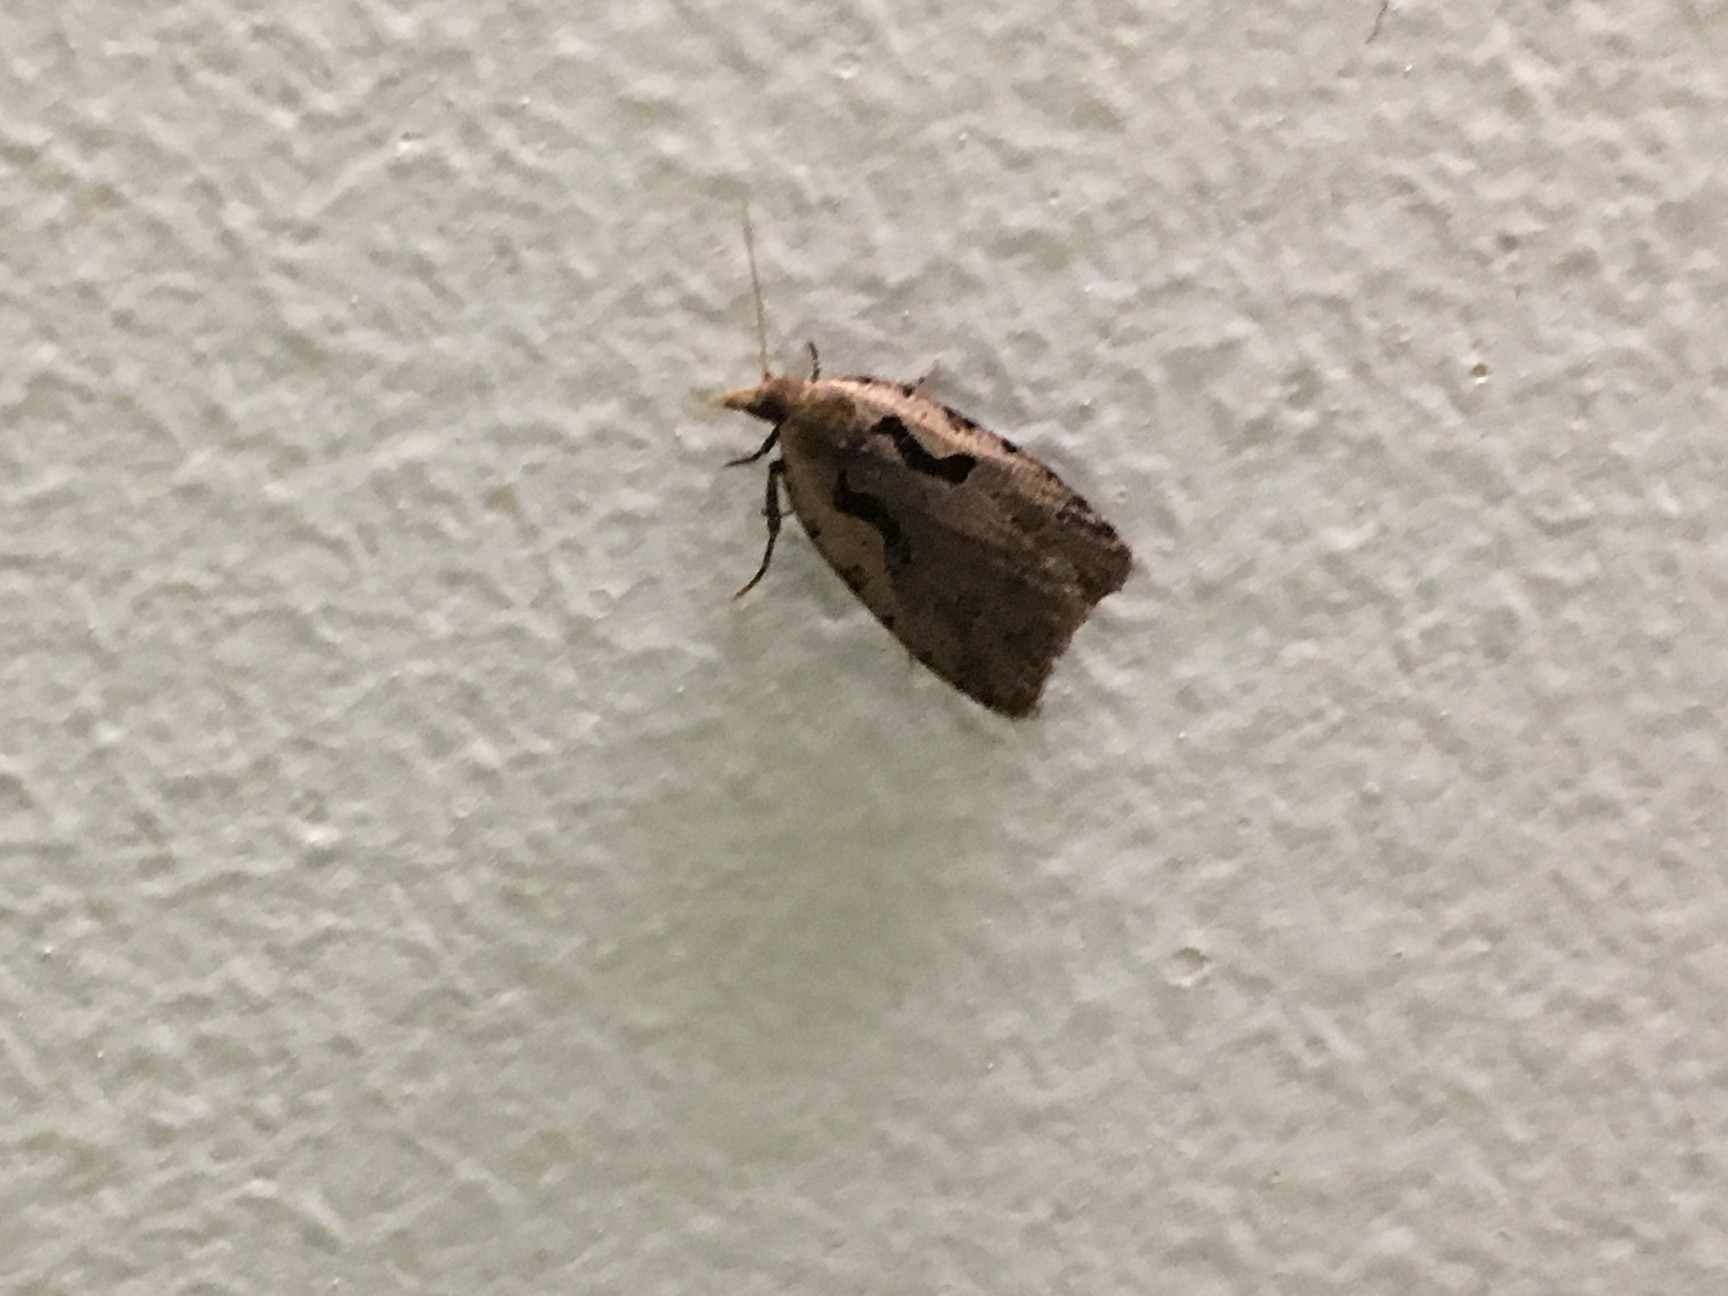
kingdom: Animalia
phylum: Arthropoda
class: Insecta
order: Lepidoptera
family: Tortricidae
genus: Cnephasia
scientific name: Cnephasia jactatana
